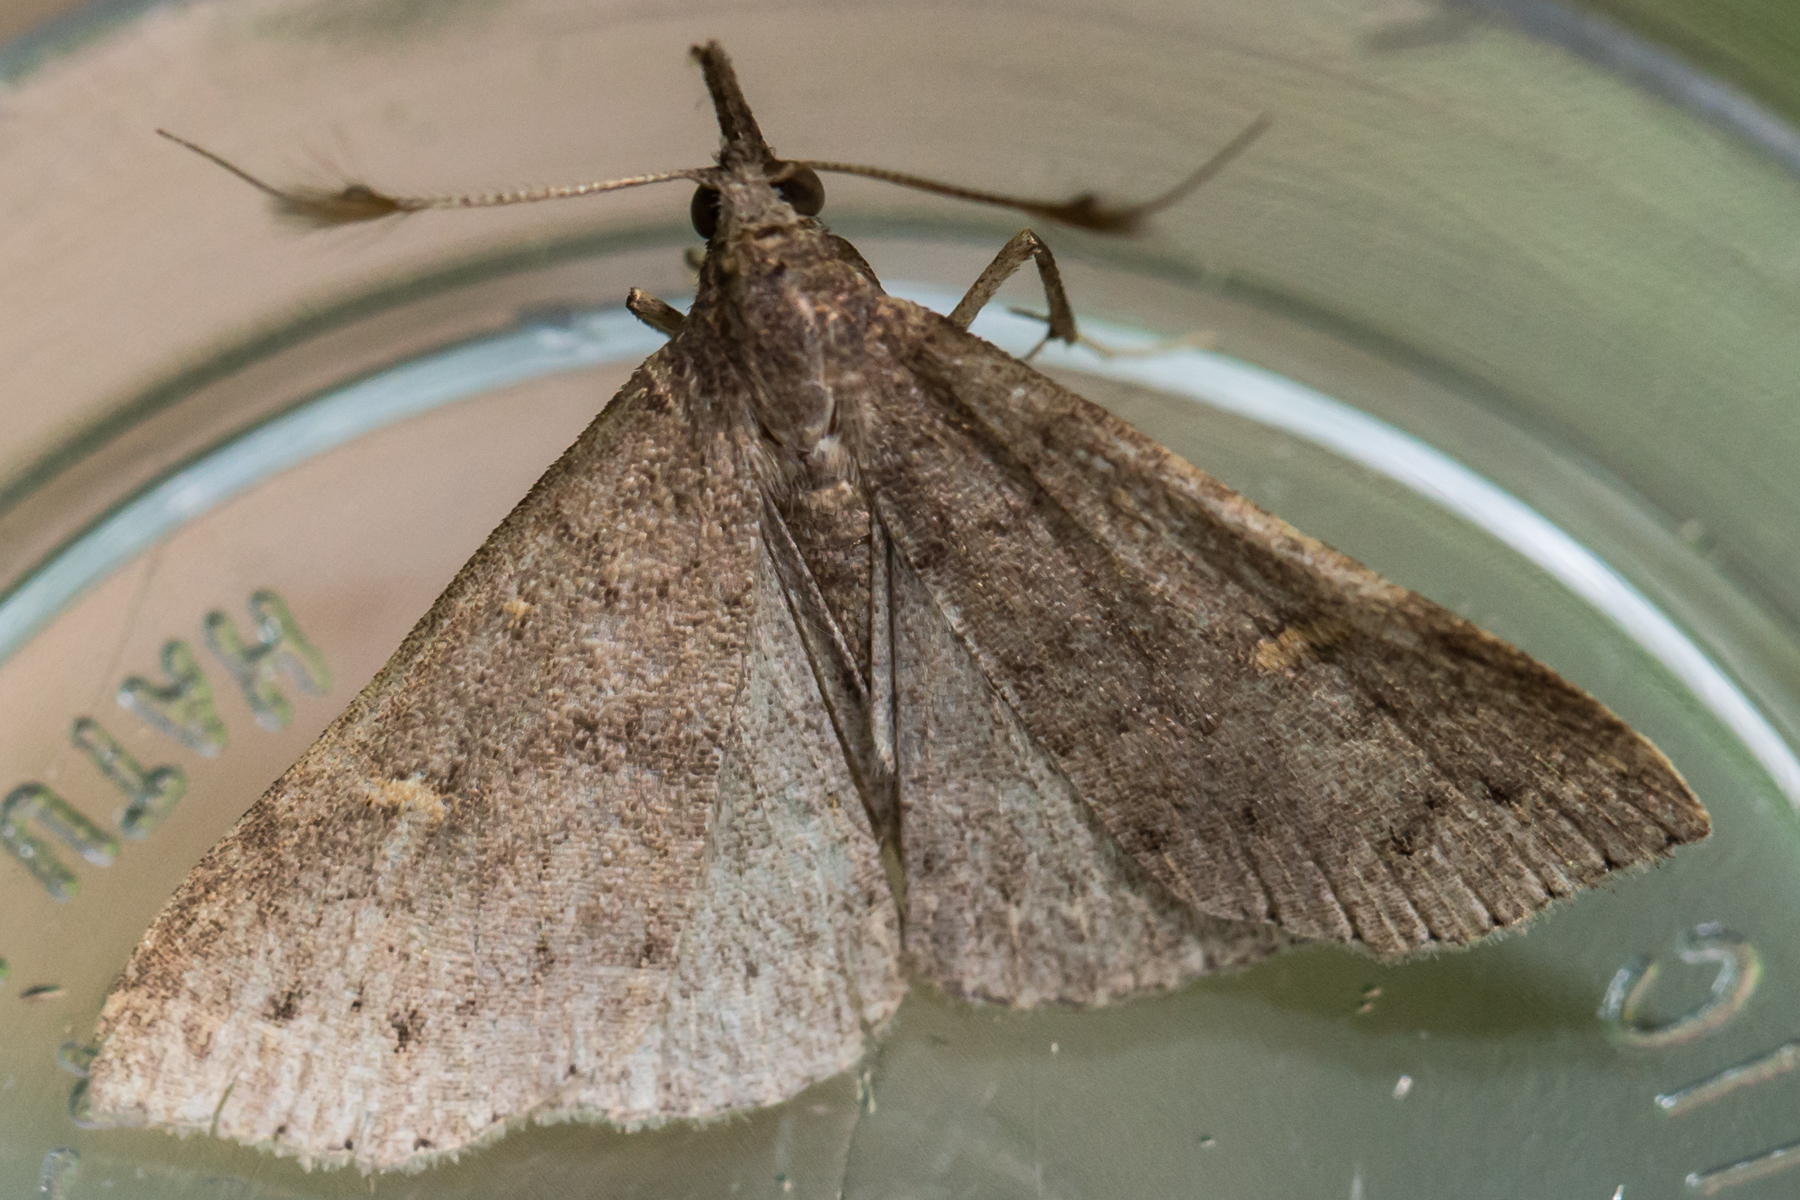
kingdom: Animalia
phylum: Arthropoda
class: Insecta
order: Lepidoptera
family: Erebidae
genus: Renia
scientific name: Renia adspergillus
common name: Speckled renia moth
